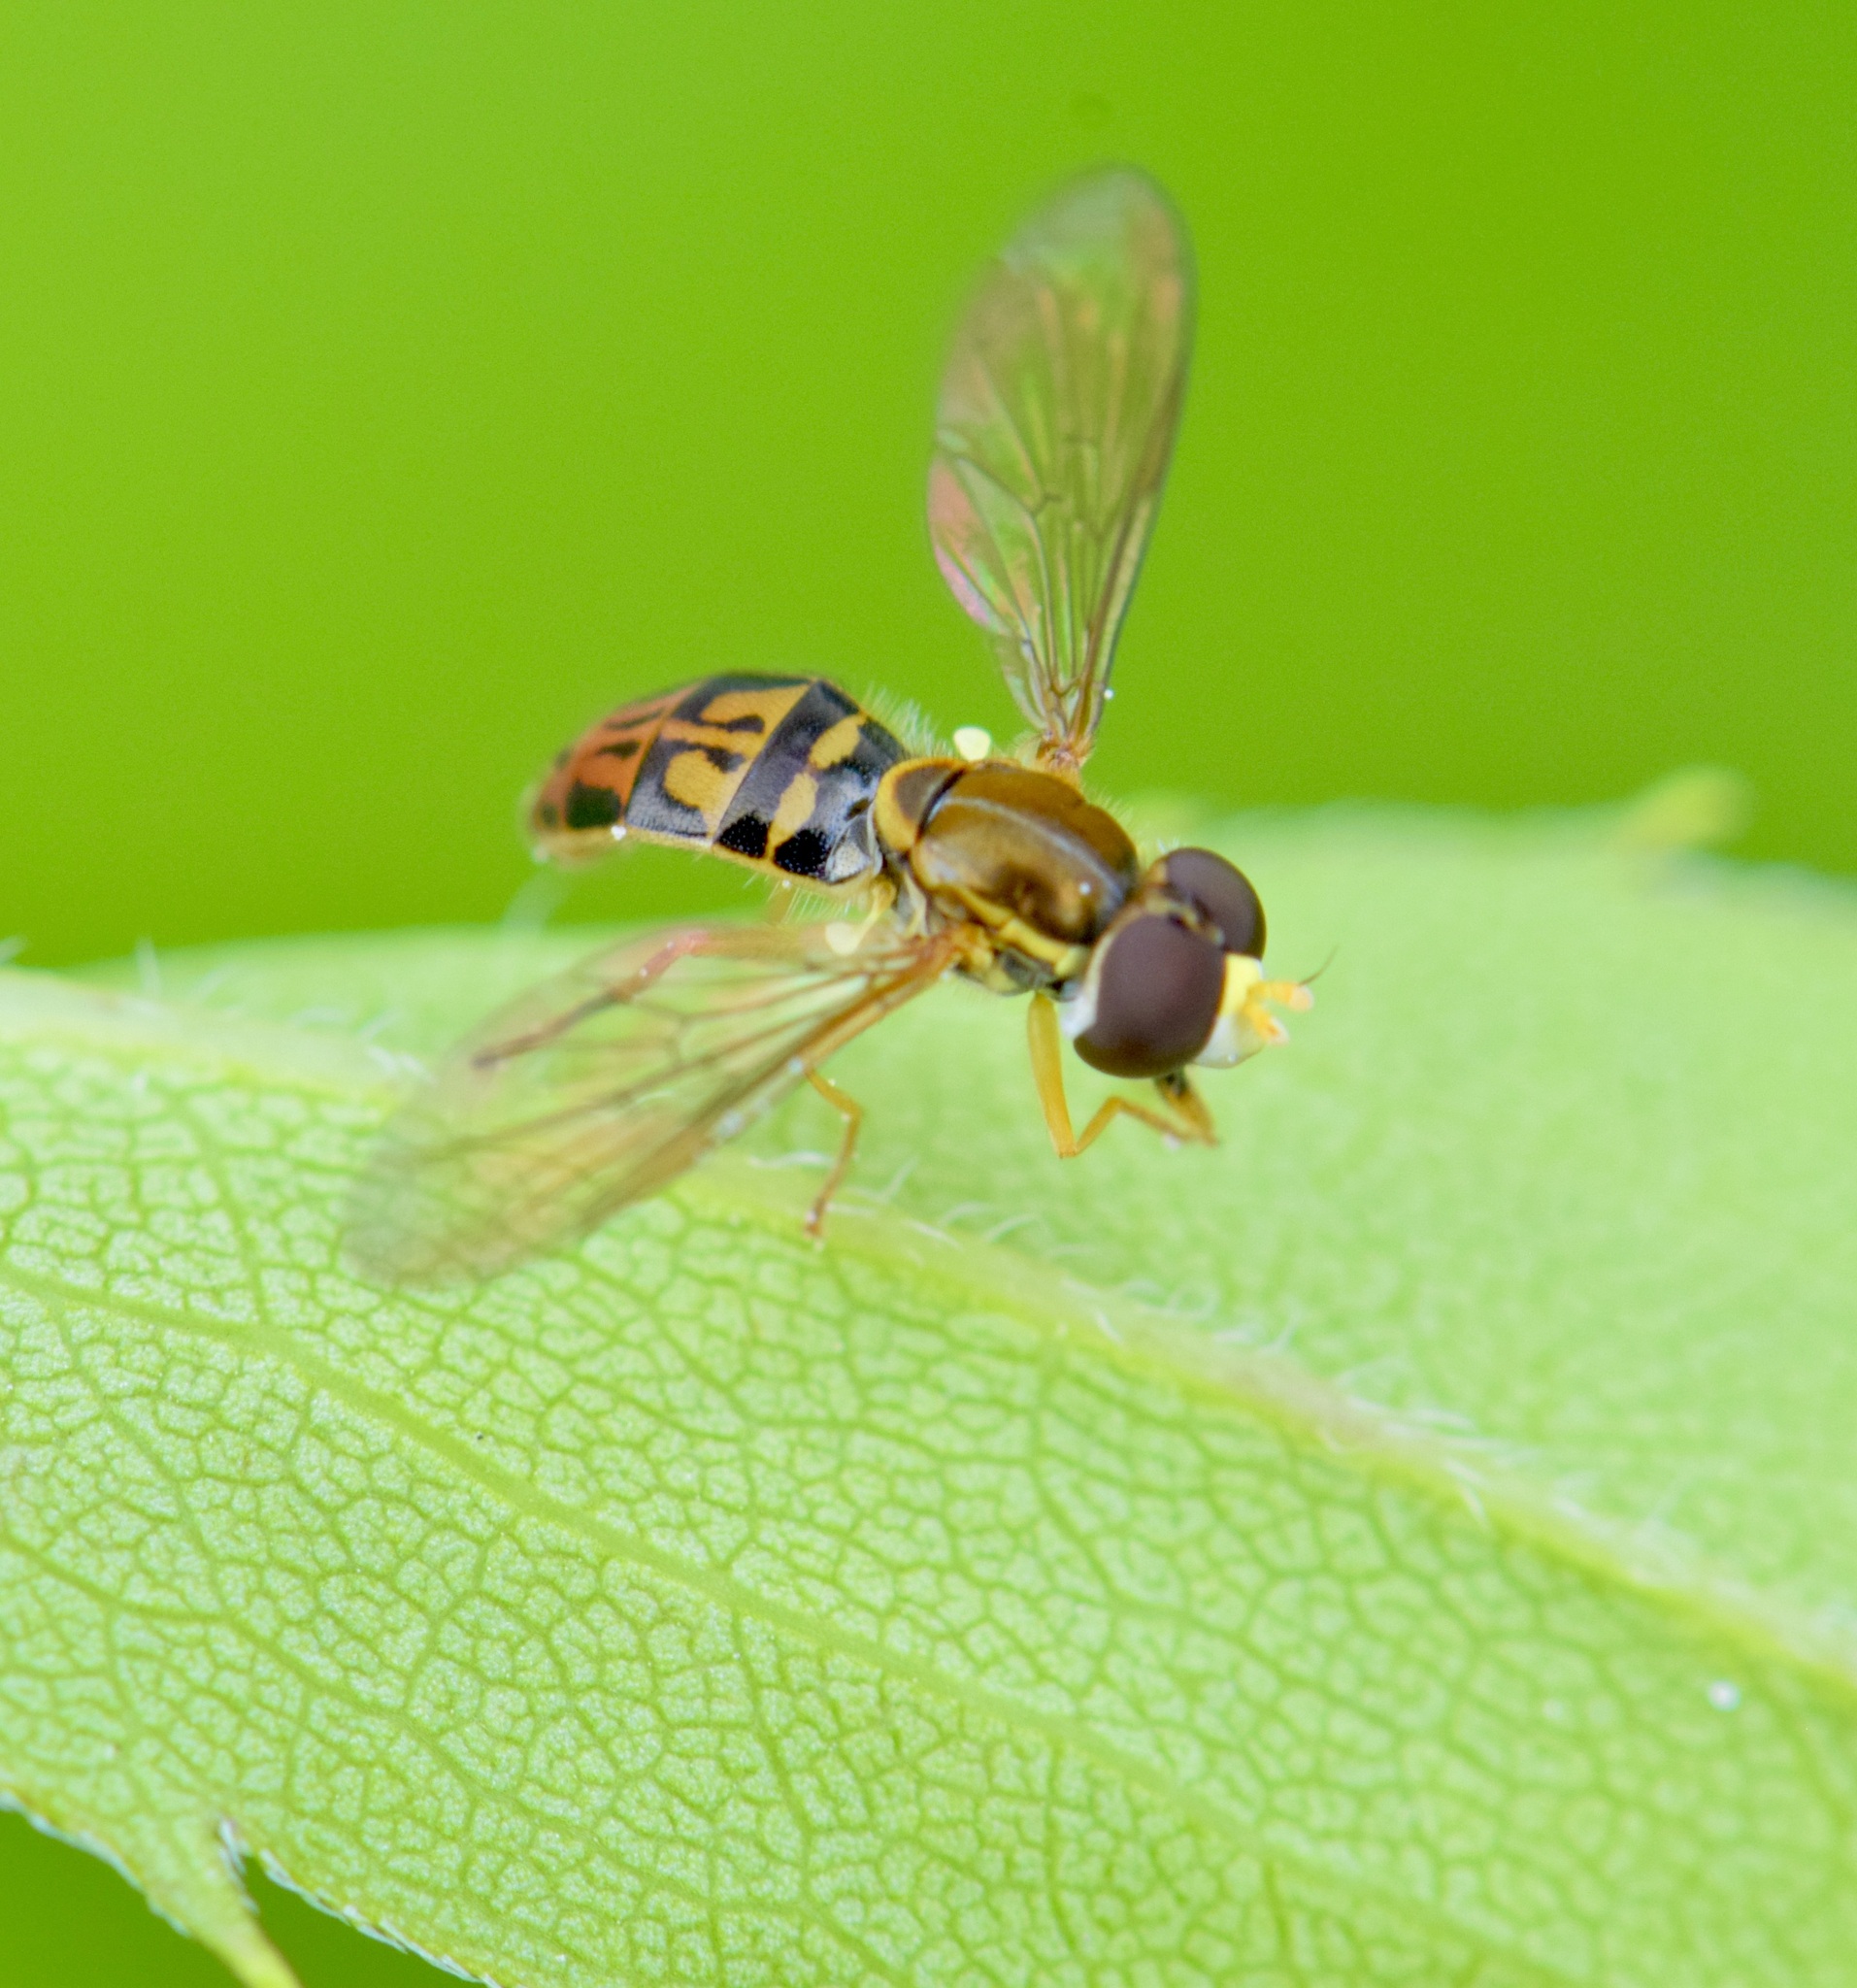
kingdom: Animalia
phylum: Arthropoda
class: Insecta
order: Diptera
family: Syrphidae
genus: Toxomerus
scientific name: Toxomerus marginatus
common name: Syrphid fly
